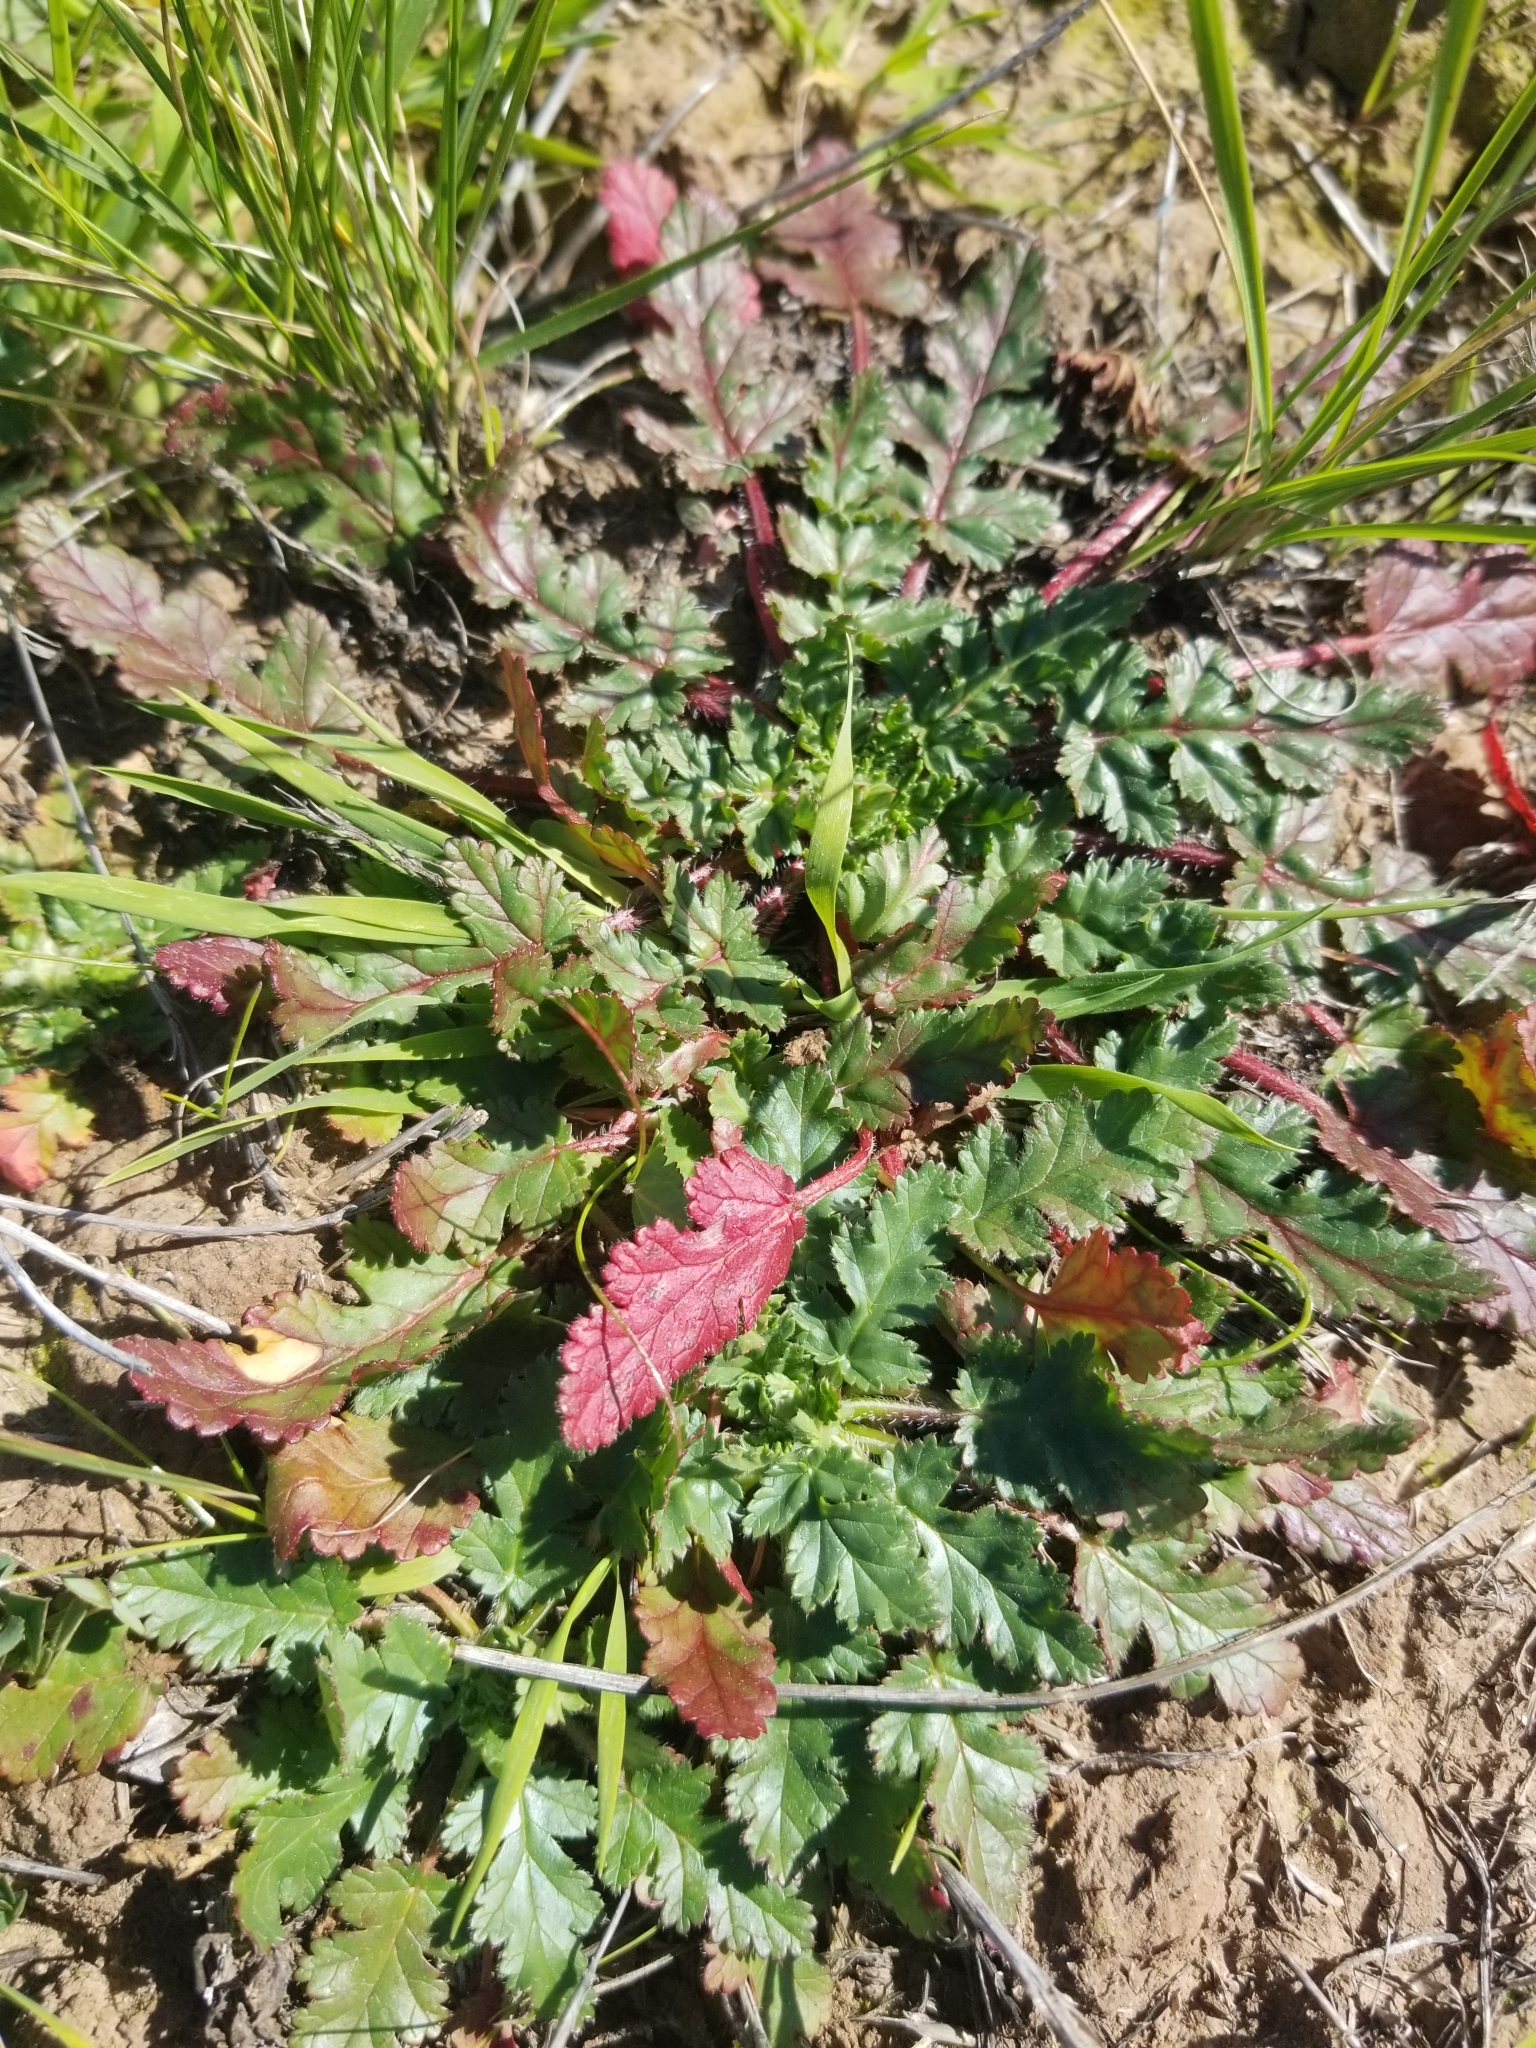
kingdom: Plantae
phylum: Tracheophyta
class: Magnoliopsida
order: Geraniales
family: Geraniaceae
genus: Erodium
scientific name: Erodium
